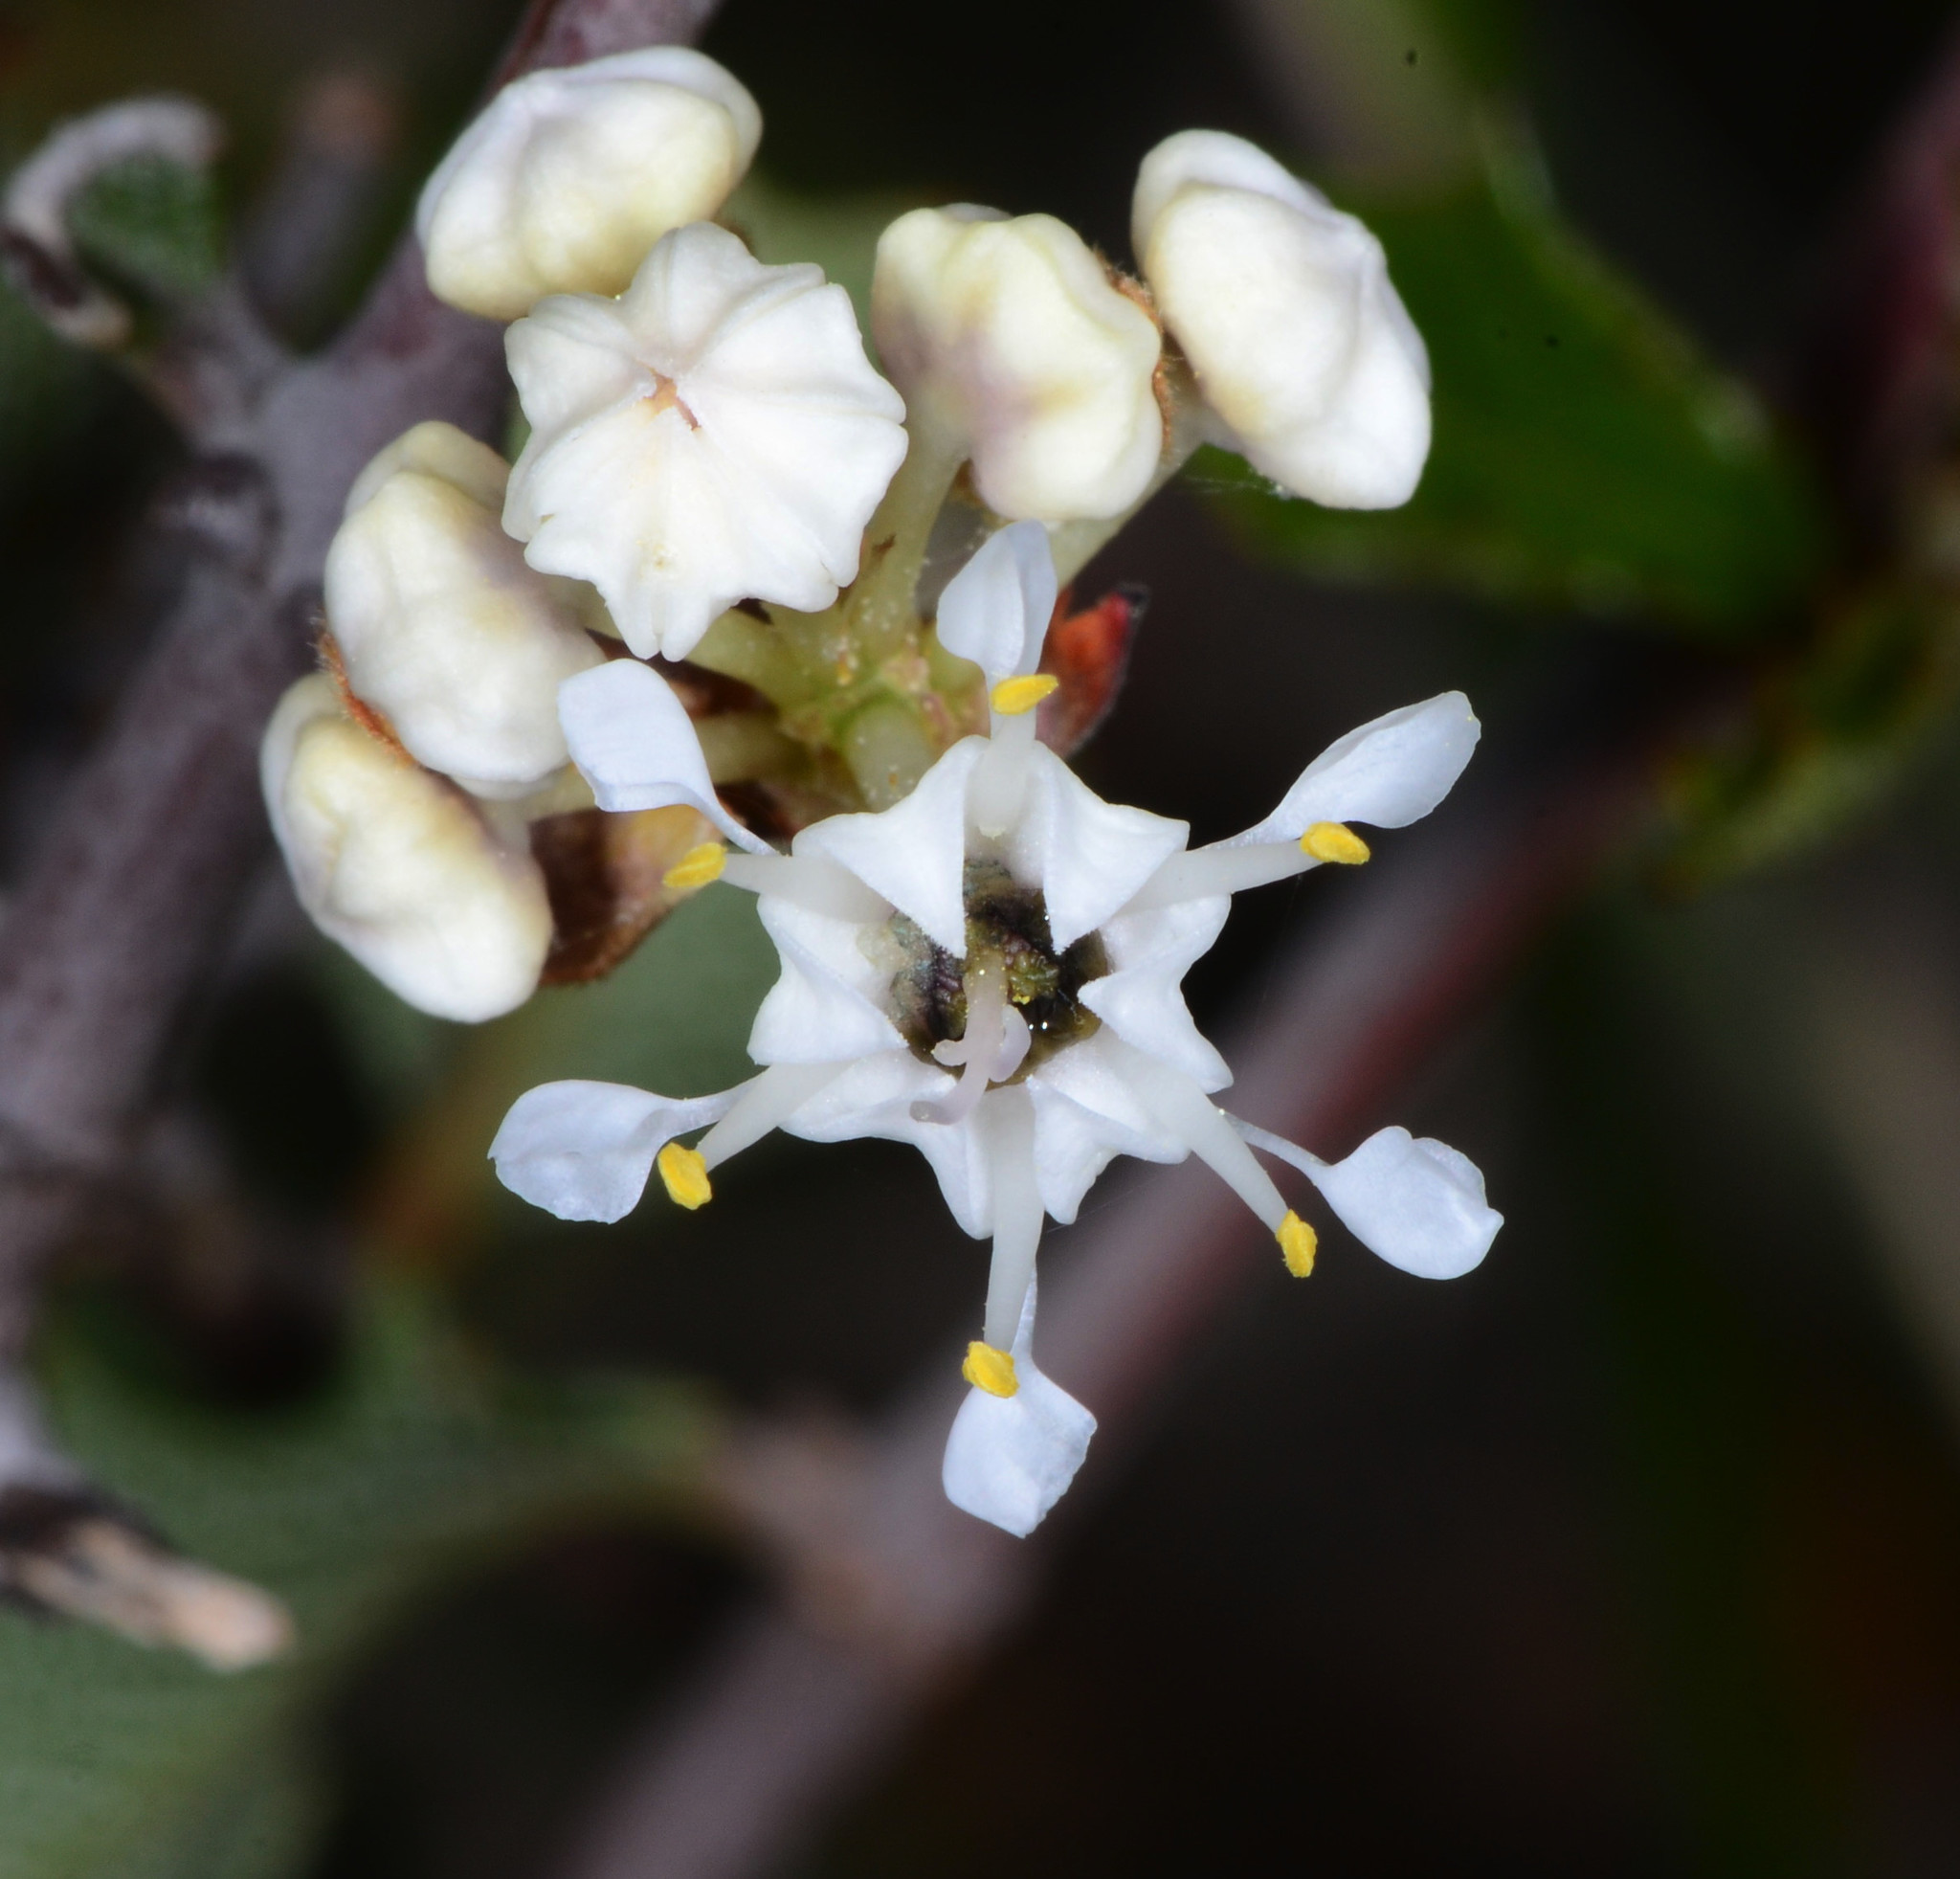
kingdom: Plantae
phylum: Tracheophyta
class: Magnoliopsida
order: Rosales
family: Rhamnaceae
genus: Ceanothus
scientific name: Ceanothus jepsonii
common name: Muskbrush
